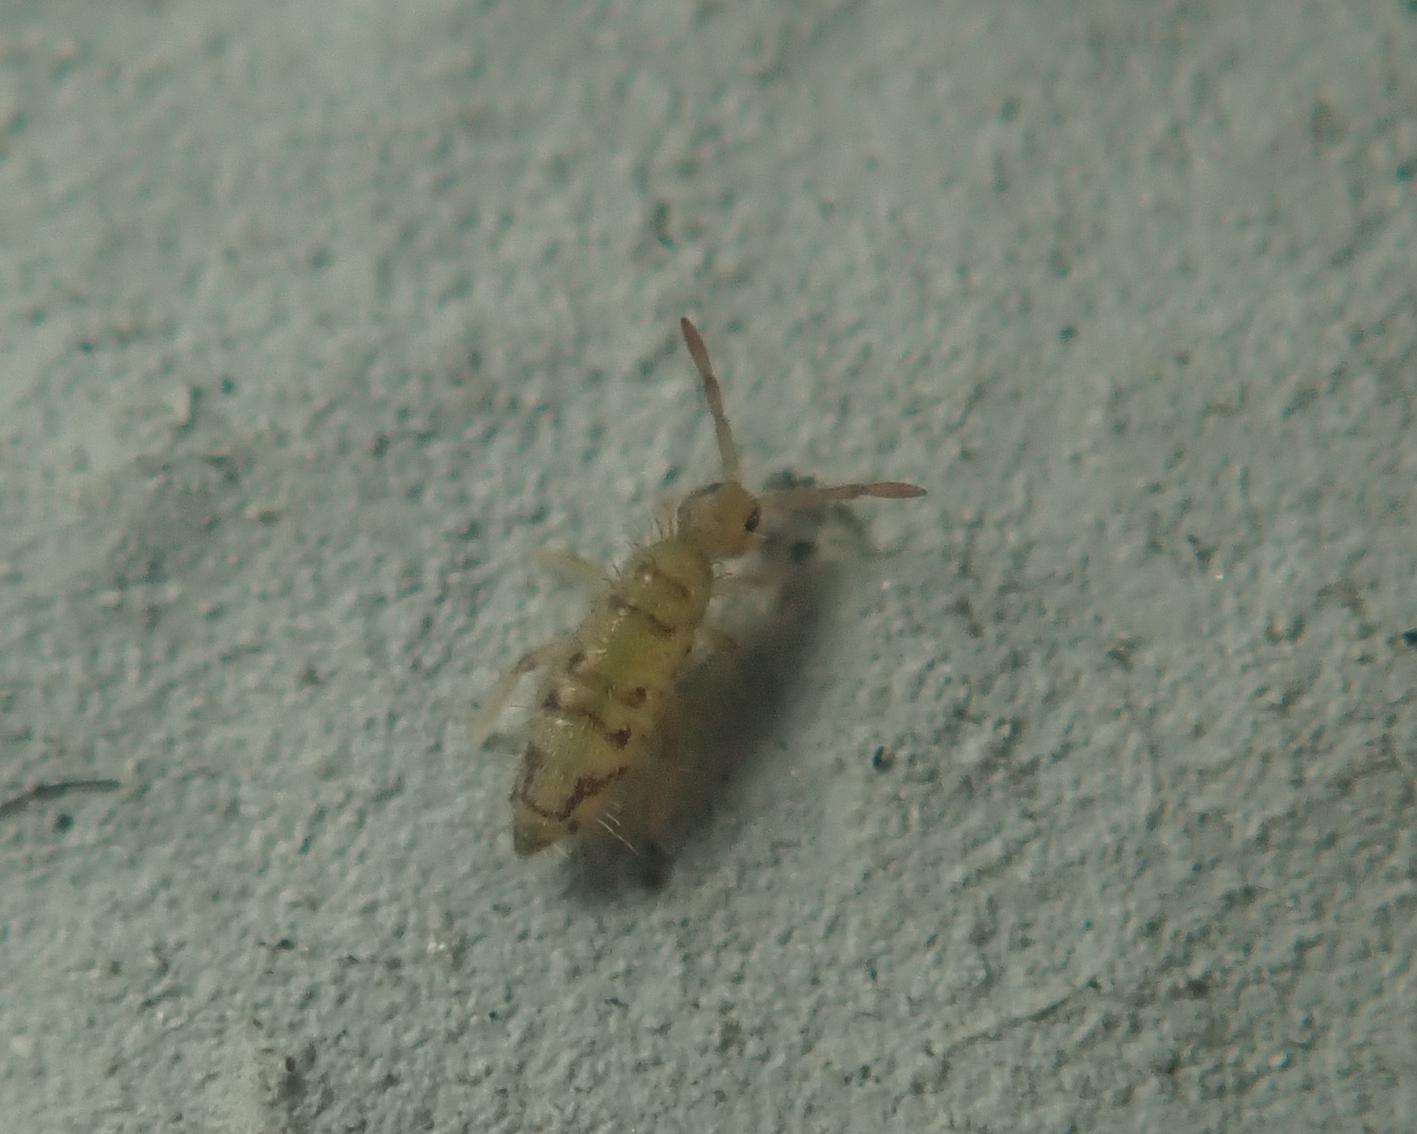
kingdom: Animalia
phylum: Arthropoda
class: Collembola
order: Entomobryomorpha
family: Entomobryidae
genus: Entomobrya
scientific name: Entomobrya nivalis
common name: Cosmopolitan springtail
